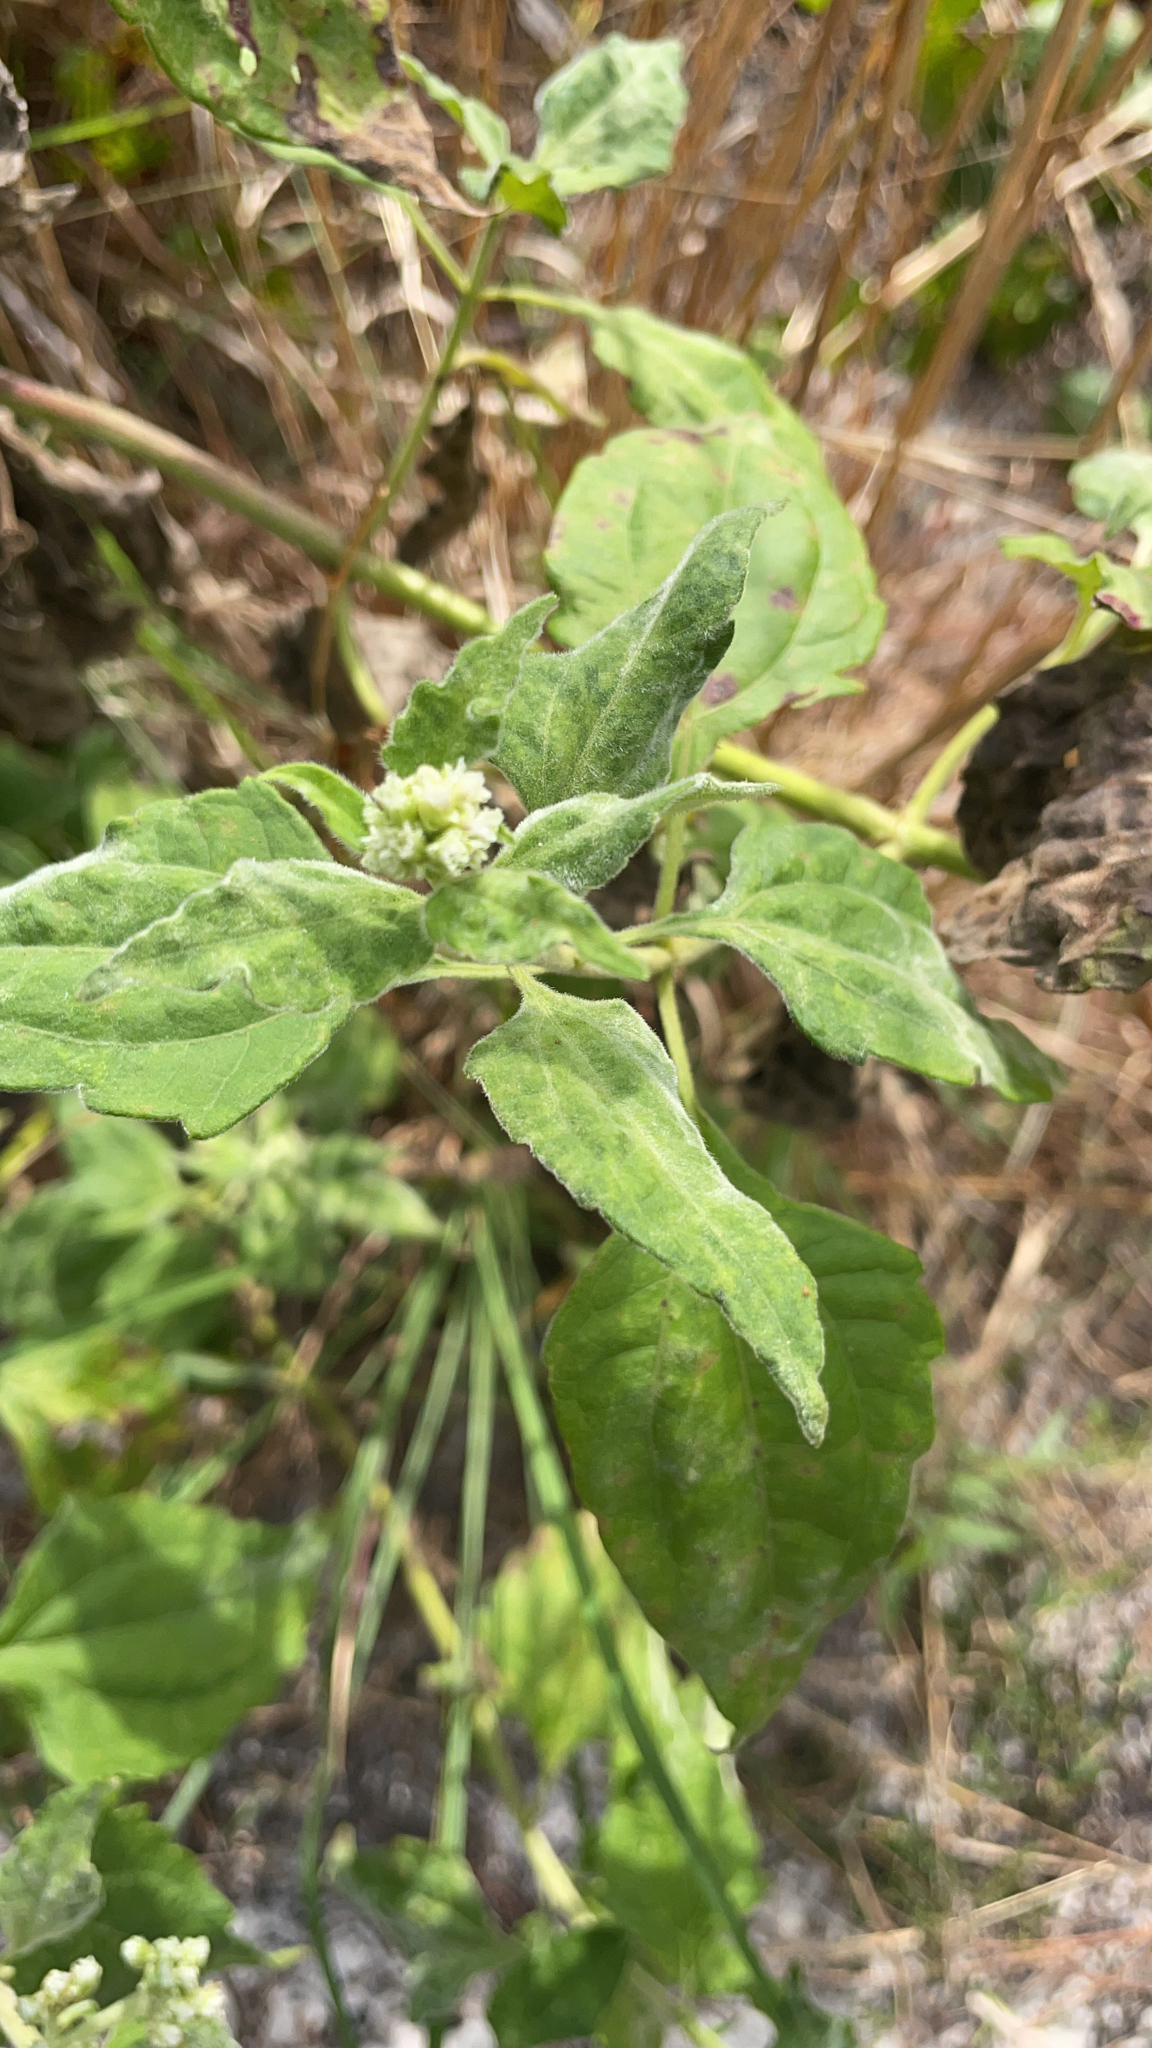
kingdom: Plantae
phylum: Tracheophyta
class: Magnoliopsida
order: Asterales
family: Asteraceae
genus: Chromolaena
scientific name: Chromolaena odorata
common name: Siamweed
